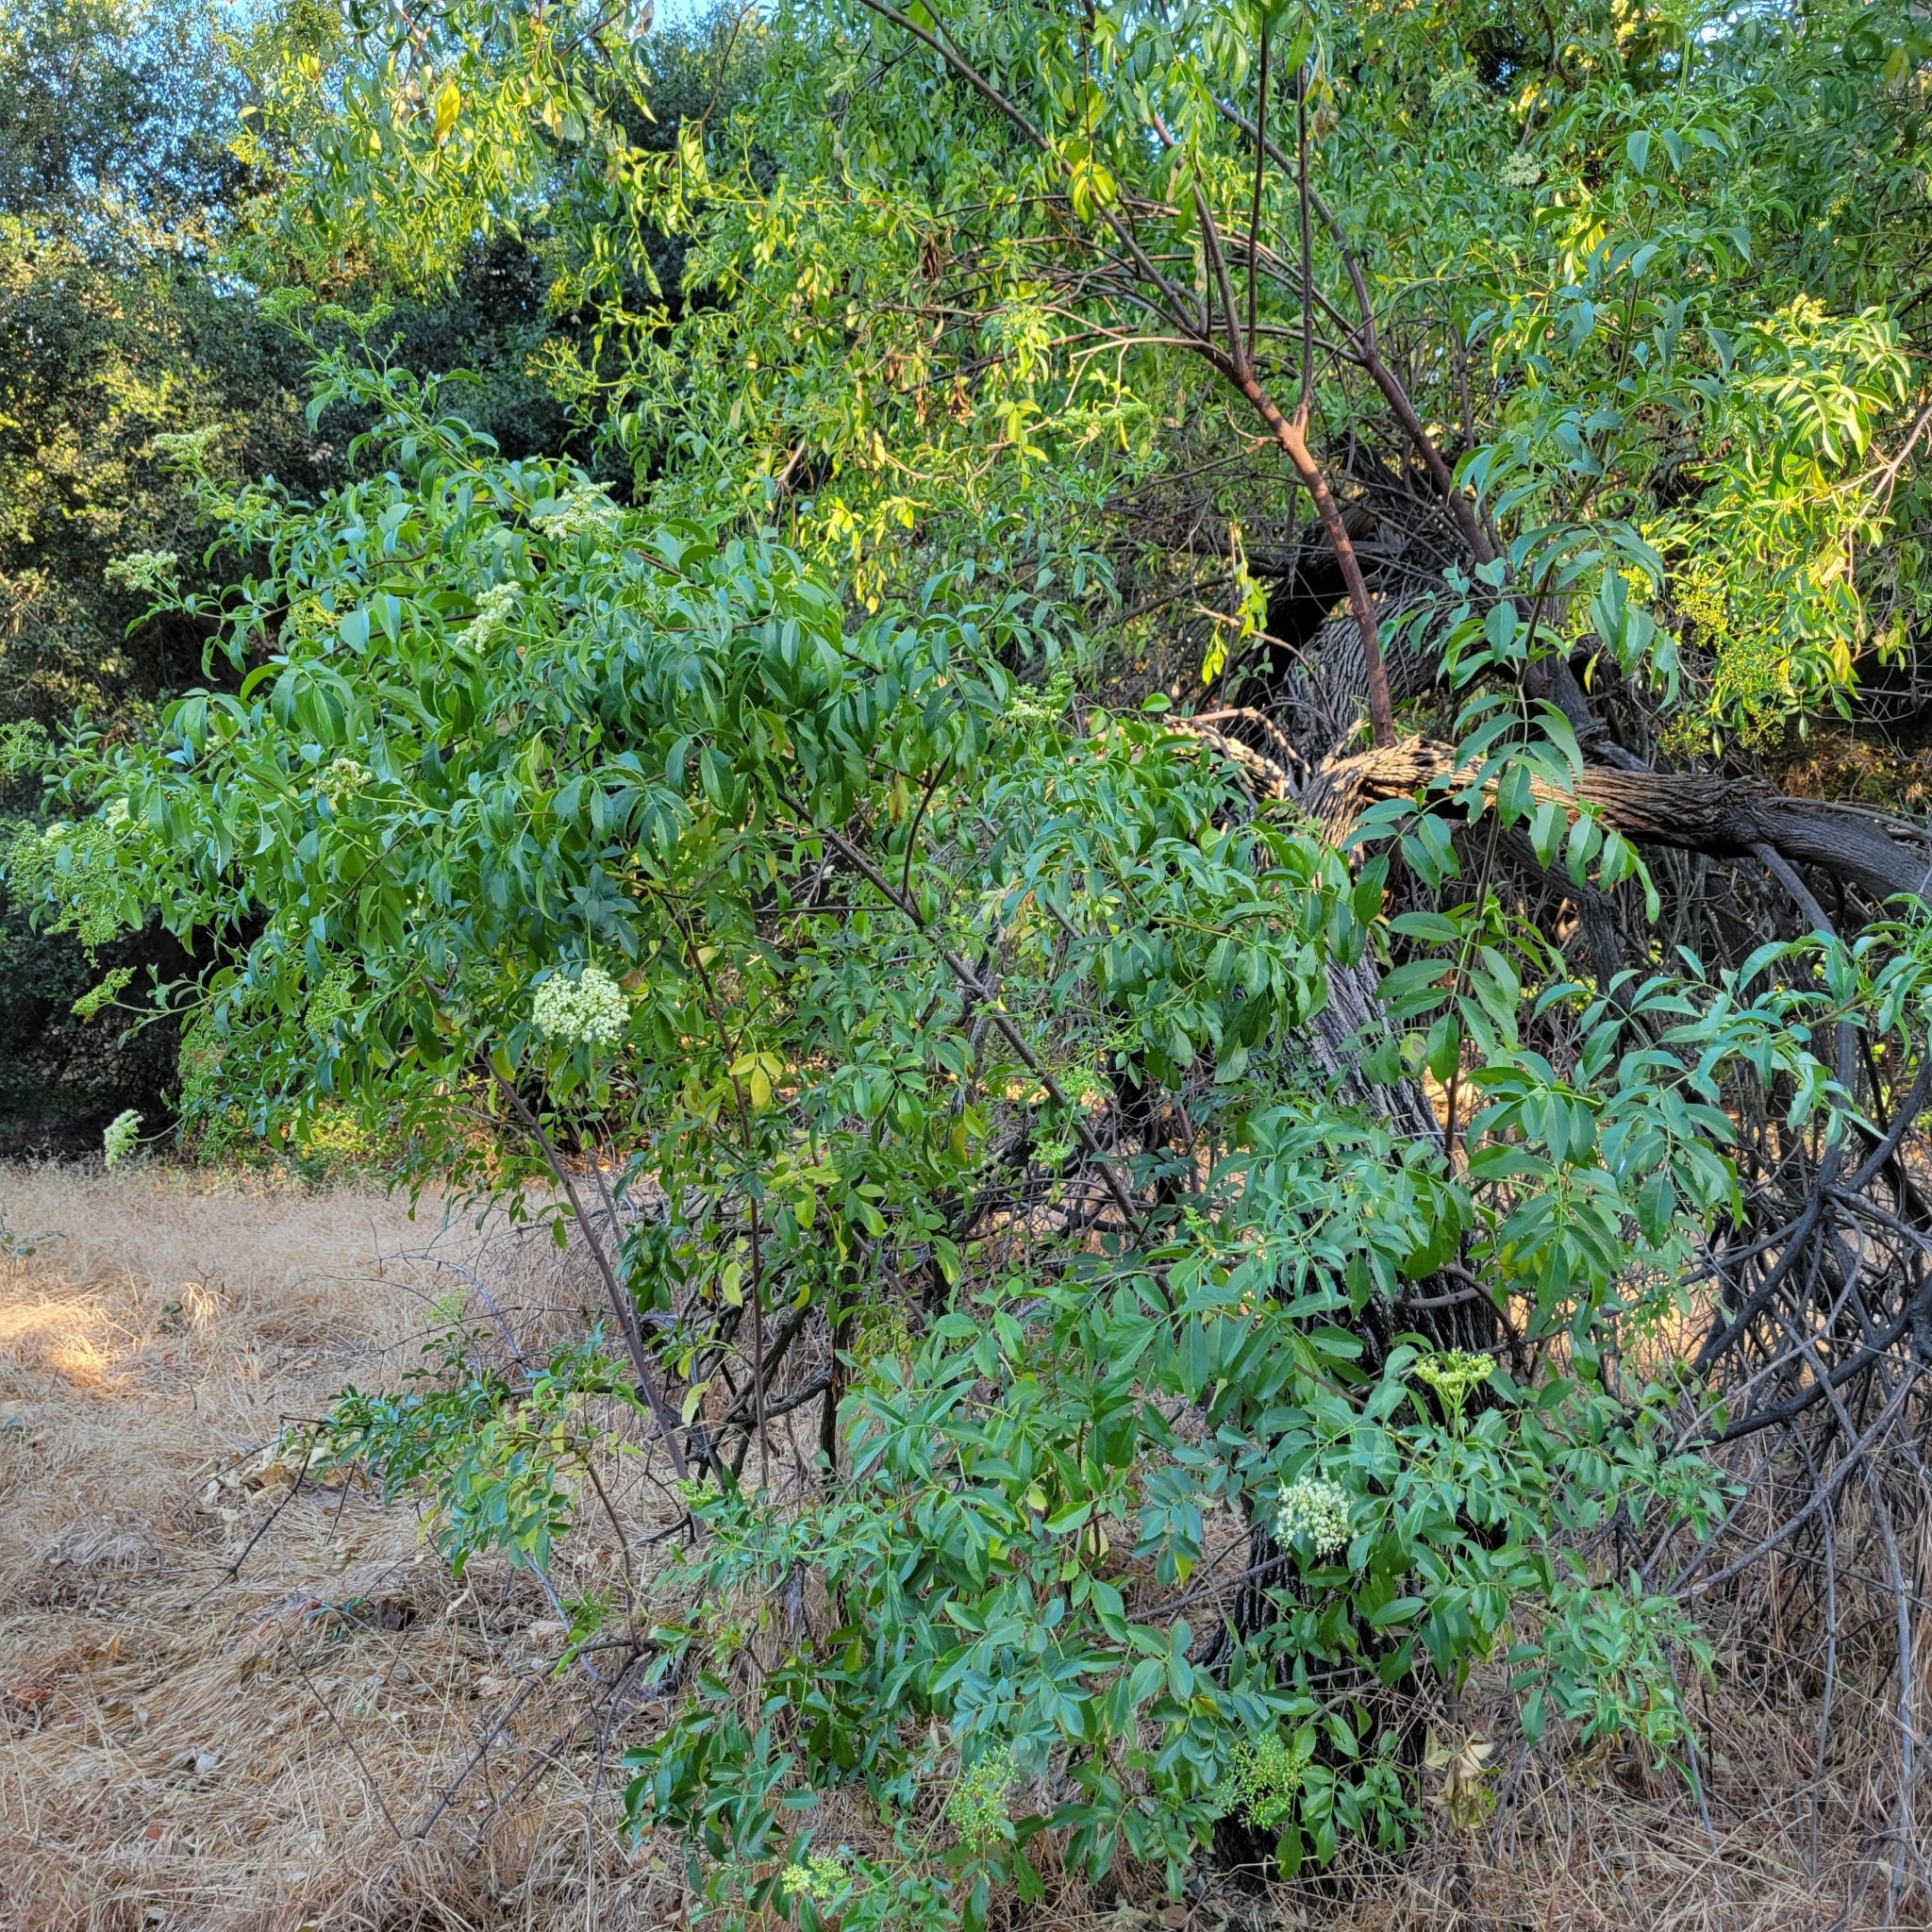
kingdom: Plantae
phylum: Tracheophyta
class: Magnoliopsida
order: Dipsacales
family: Viburnaceae
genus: Sambucus
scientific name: Sambucus cerulea
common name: Blue elder
